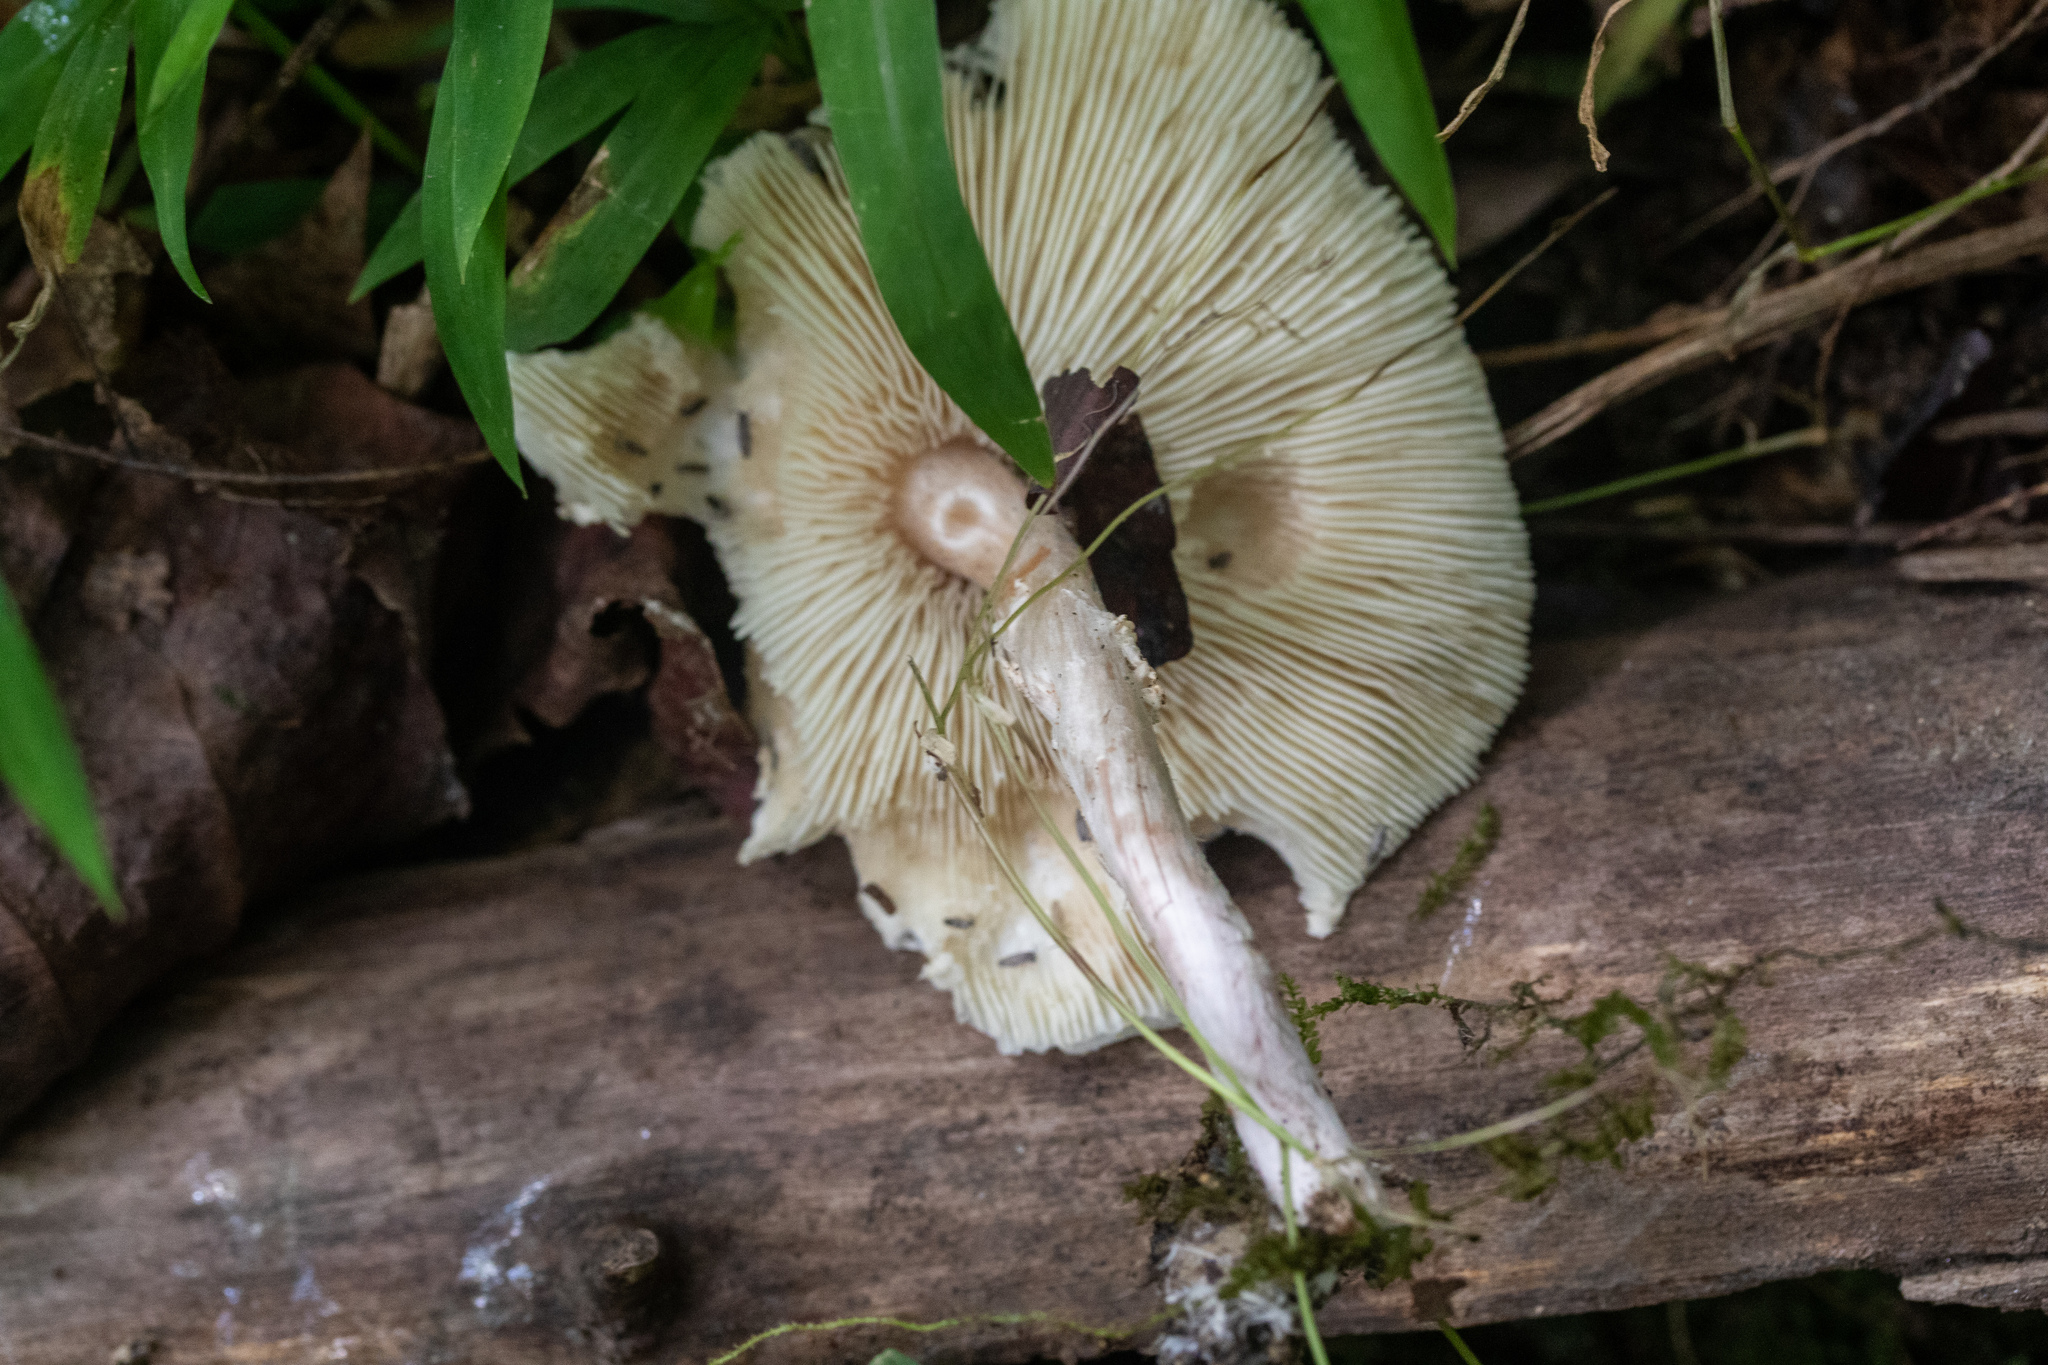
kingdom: Fungi
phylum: Basidiomycota
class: Agaricomycetes
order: Agaricales
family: Agaricaceae
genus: Lepiota
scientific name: Lepiota cristata
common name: Stinking dapperling
